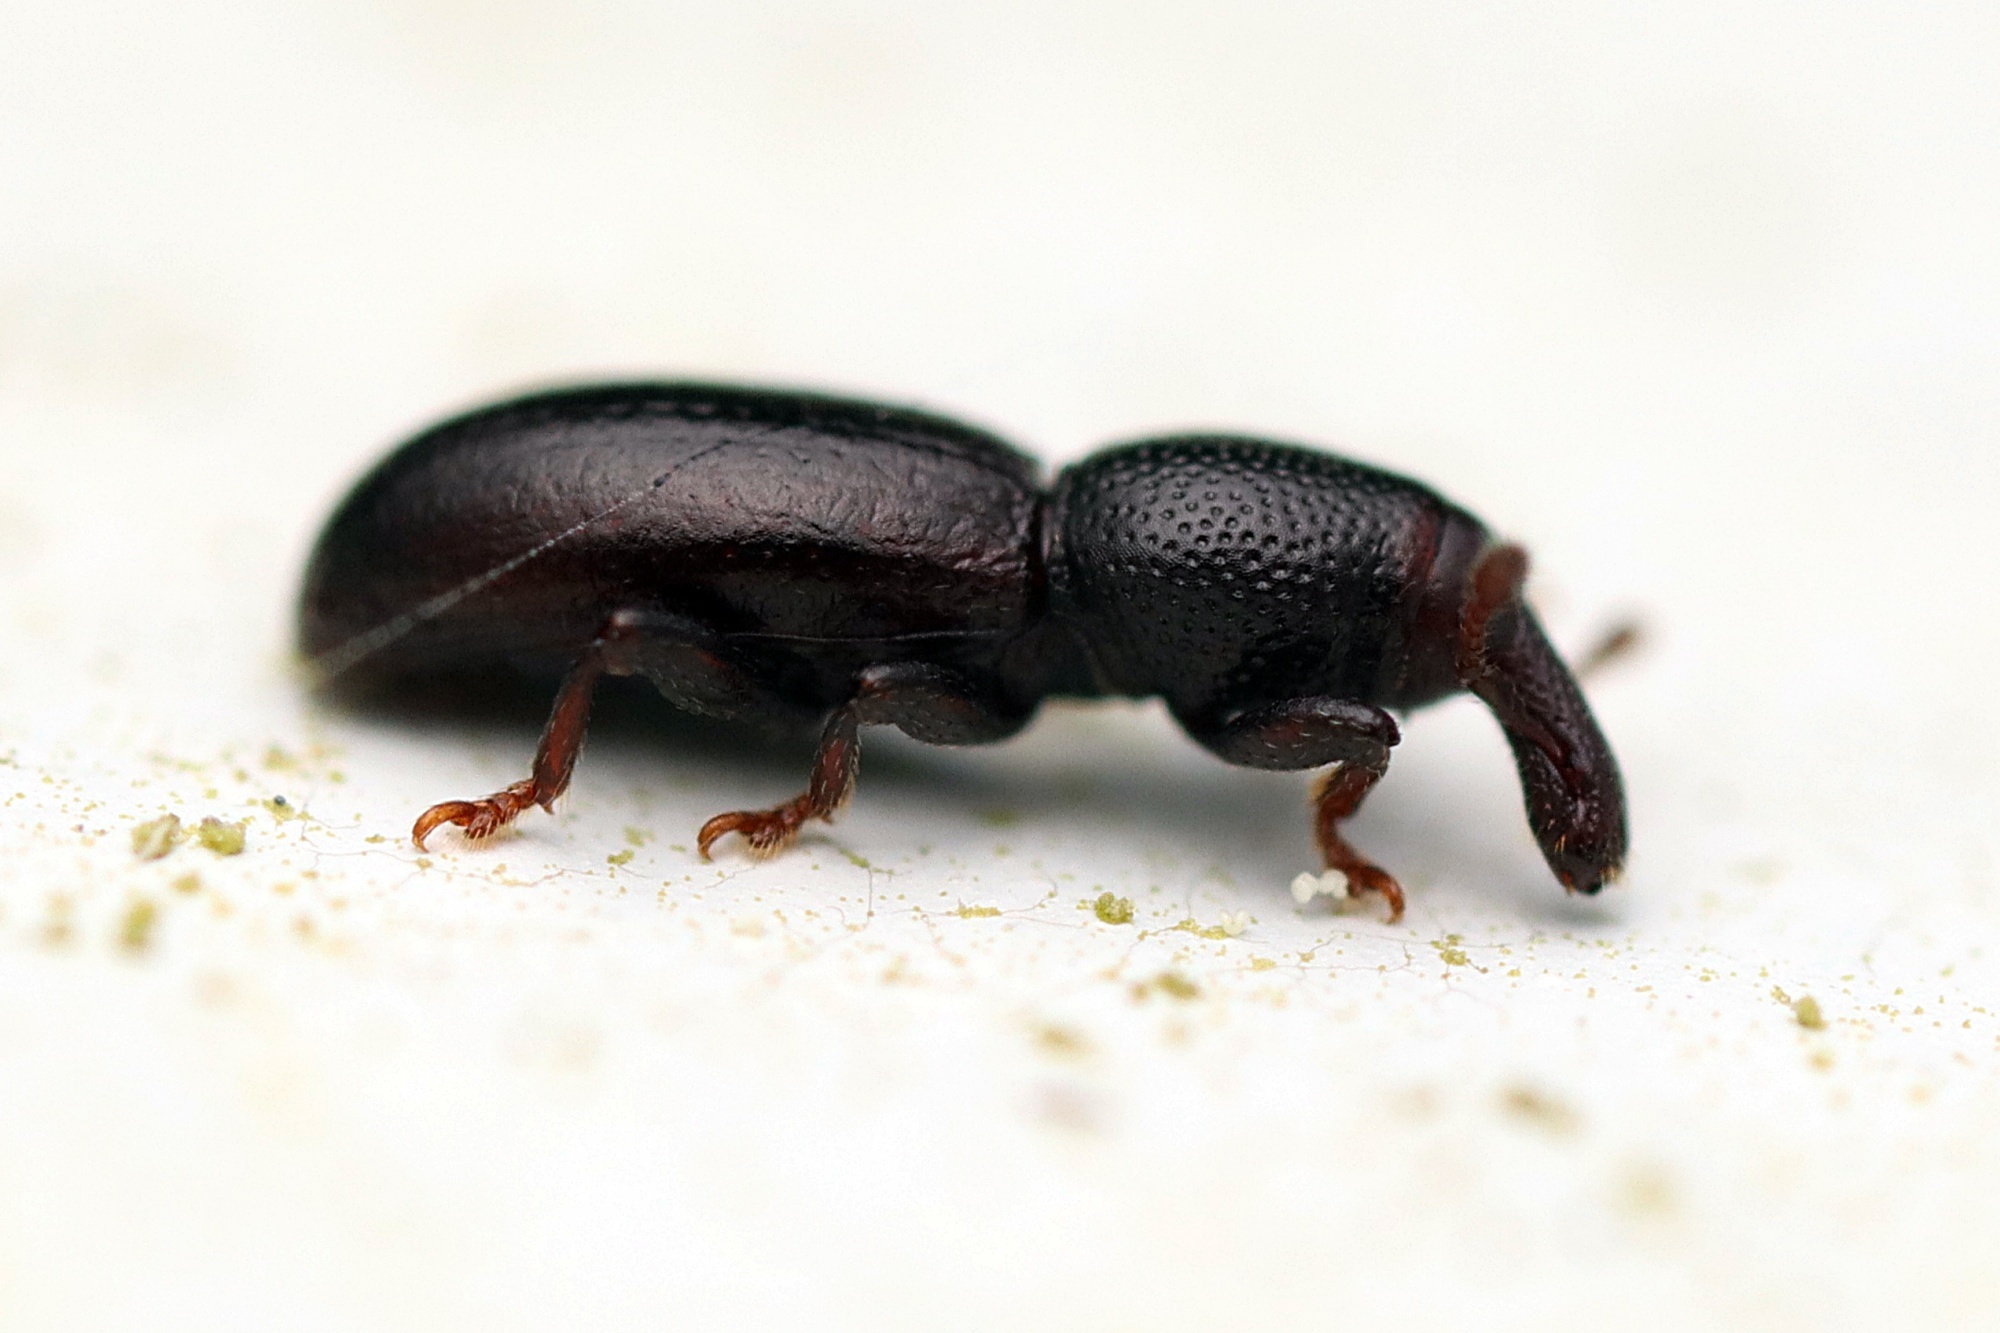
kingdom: Animalia
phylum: Arthropoda
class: Insecta
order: Coleoptera
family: Curculionidae
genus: Microtribus
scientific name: Microtribus huttoni
